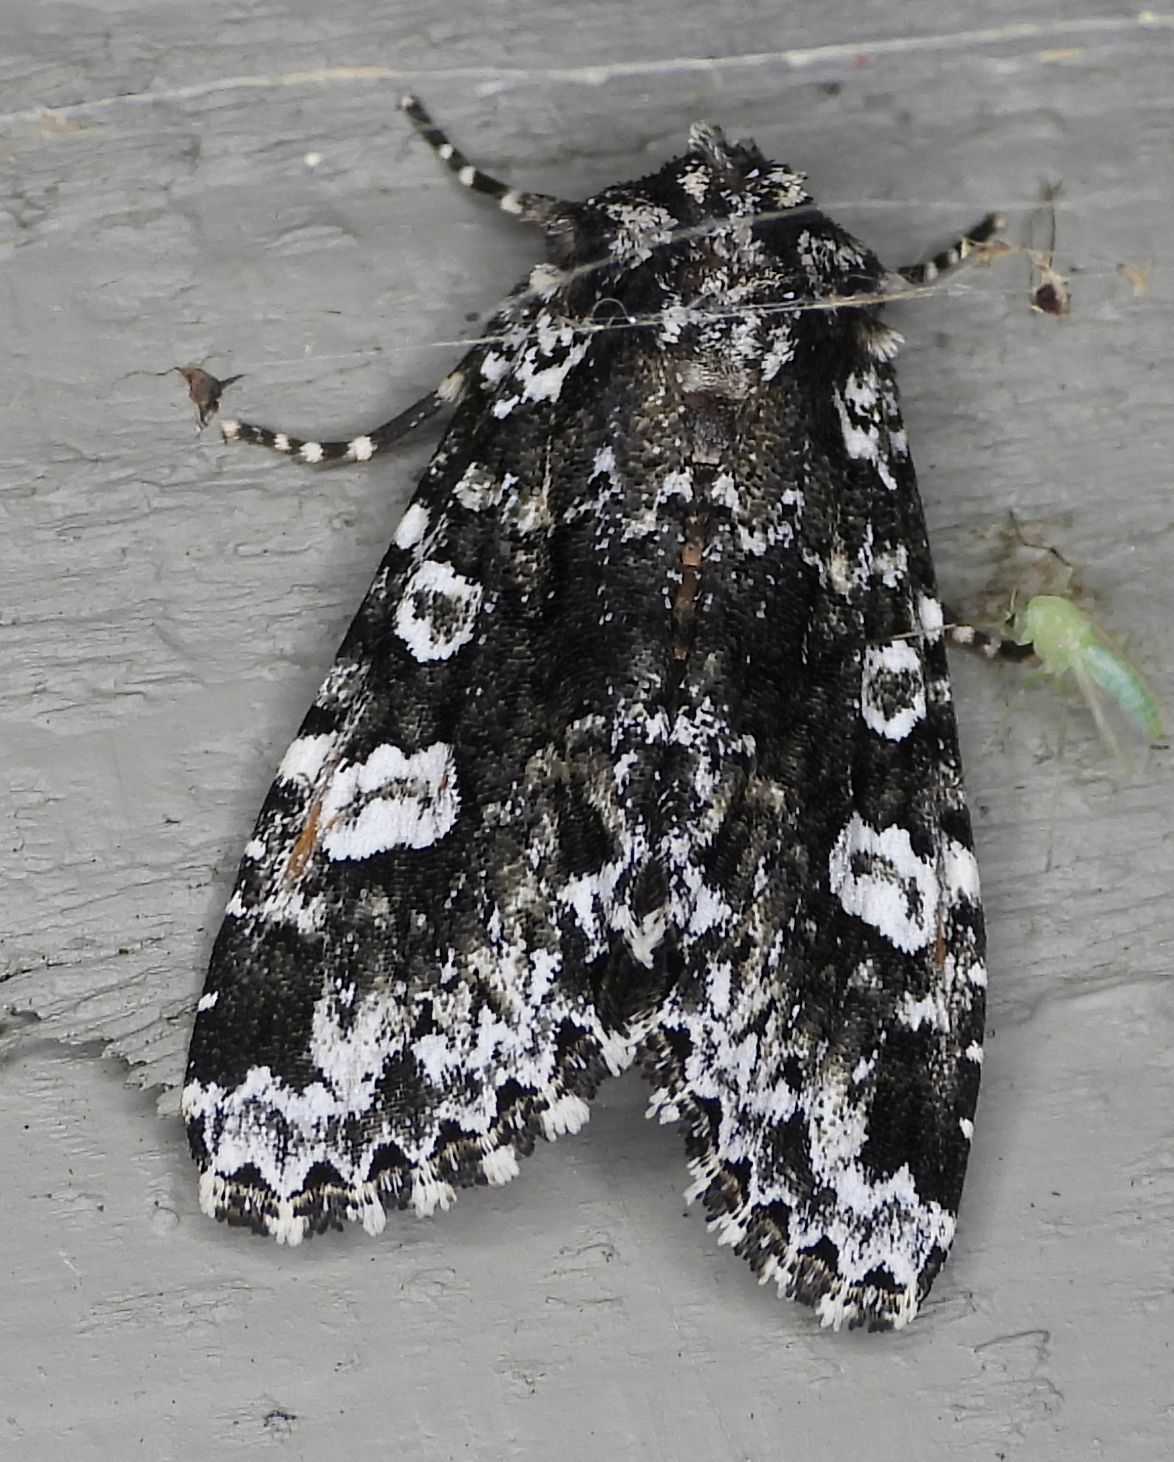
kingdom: Animalia
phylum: Arthropoda
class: Insecta
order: Lepidoptera
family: Noctuidae
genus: Melanchra
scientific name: Melanchra adjuncta
